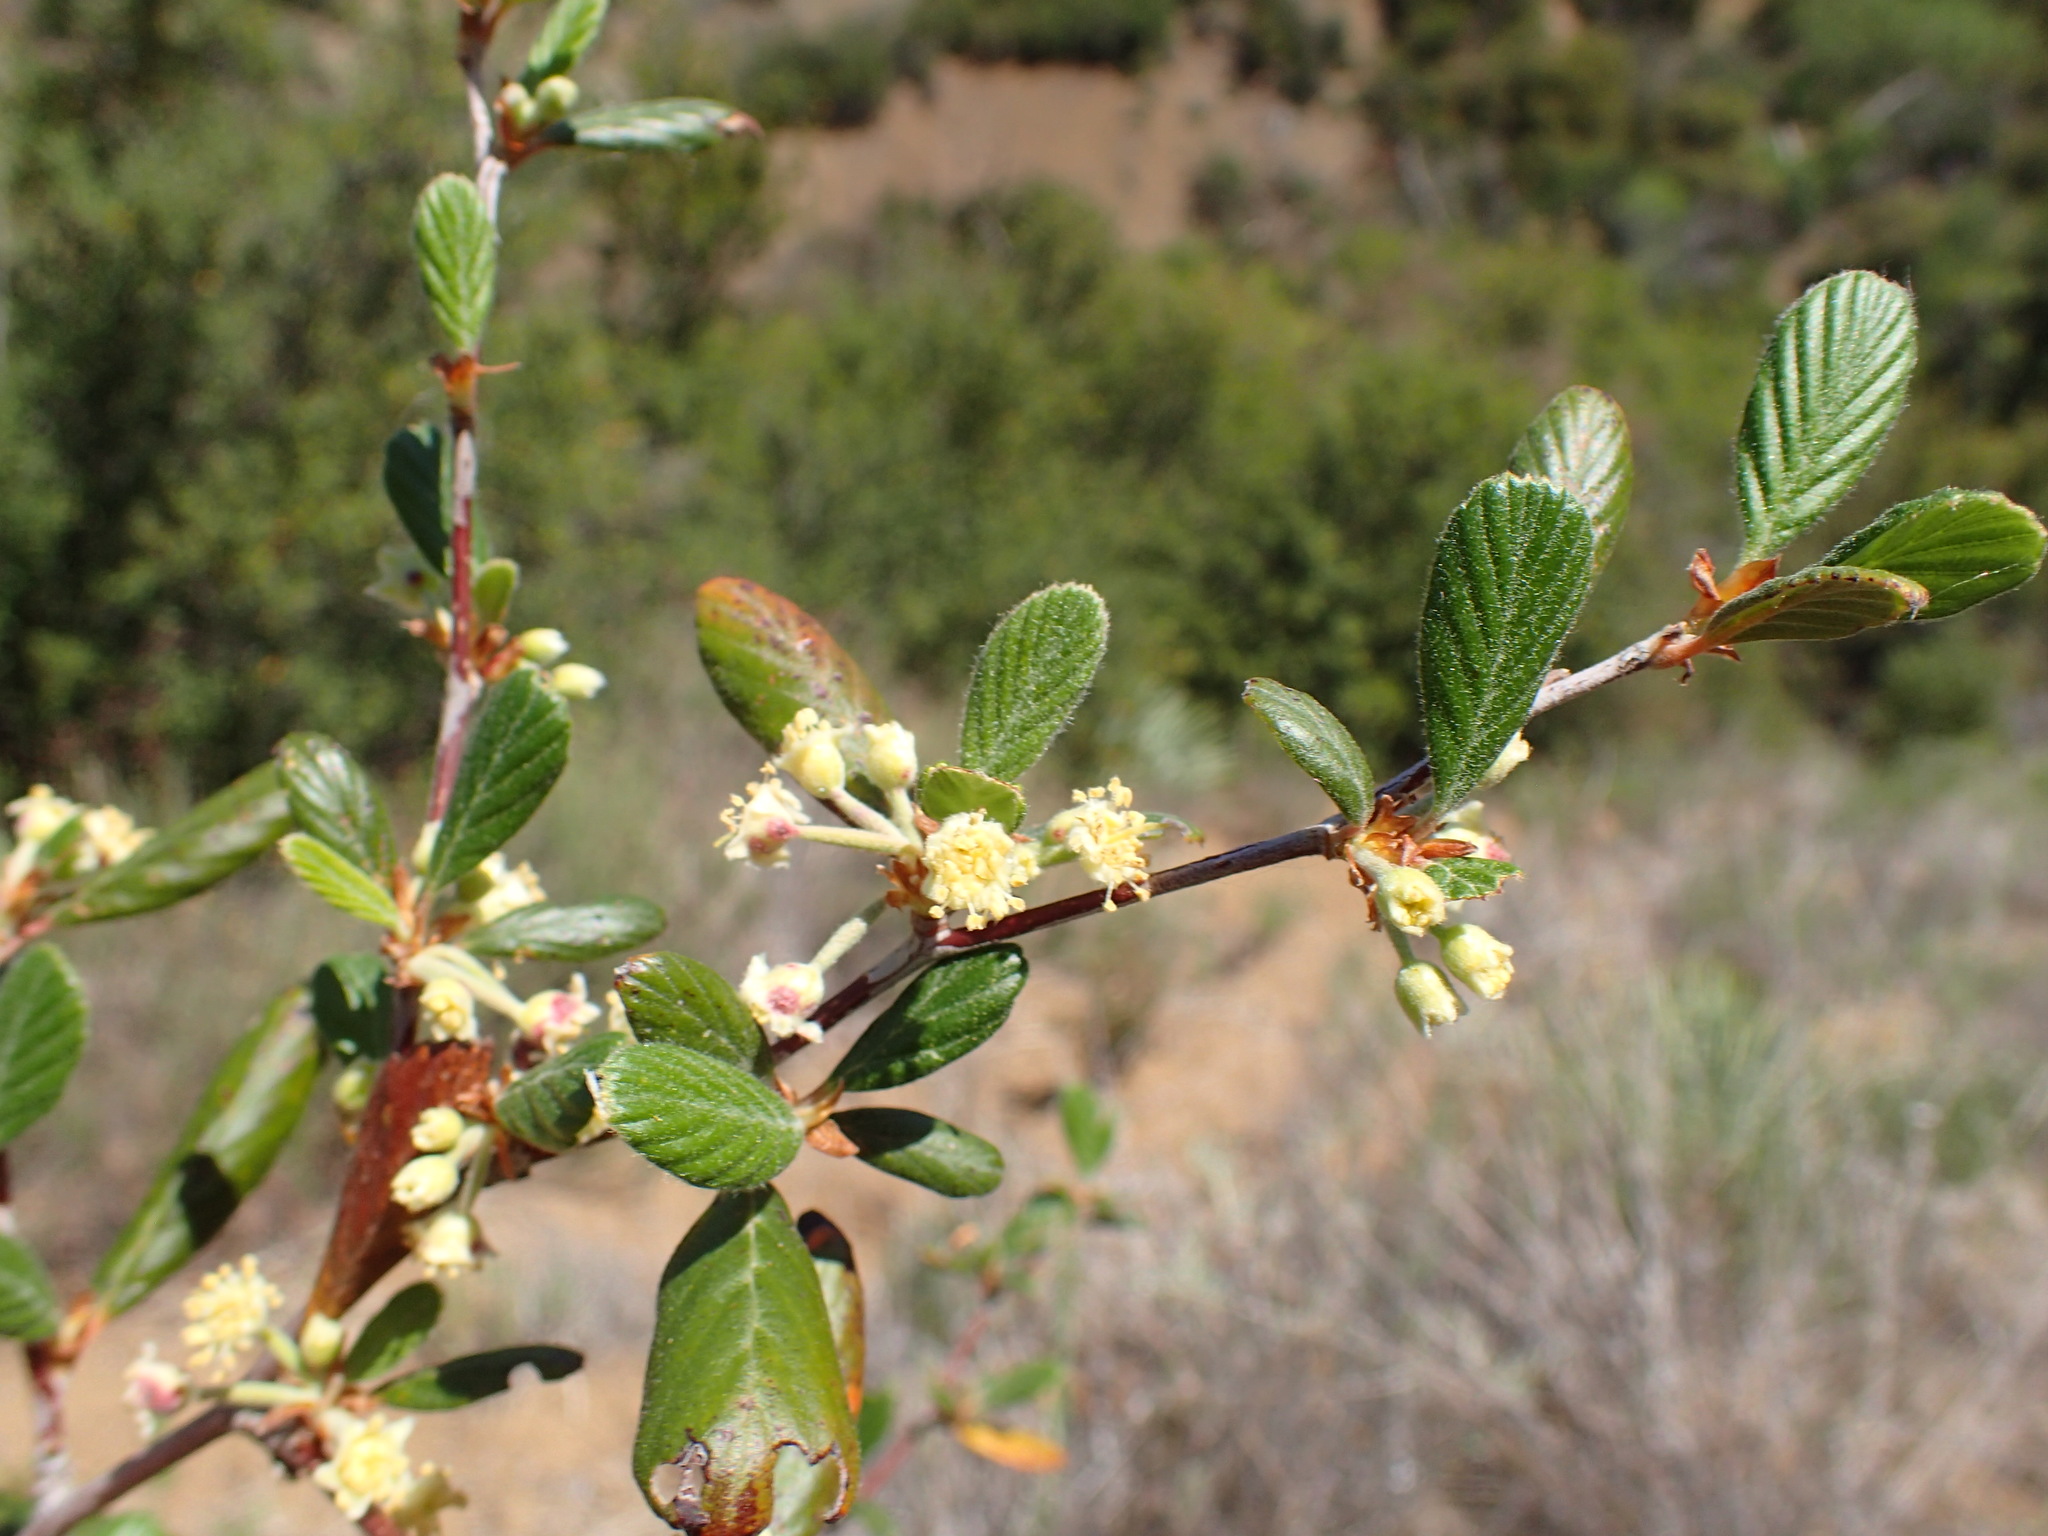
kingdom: Plantae
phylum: Tracheophyta
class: Magnoliopsida
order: Rosales
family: Rosaceae
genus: Cercocarpus
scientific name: Cercocarpus betuloides
